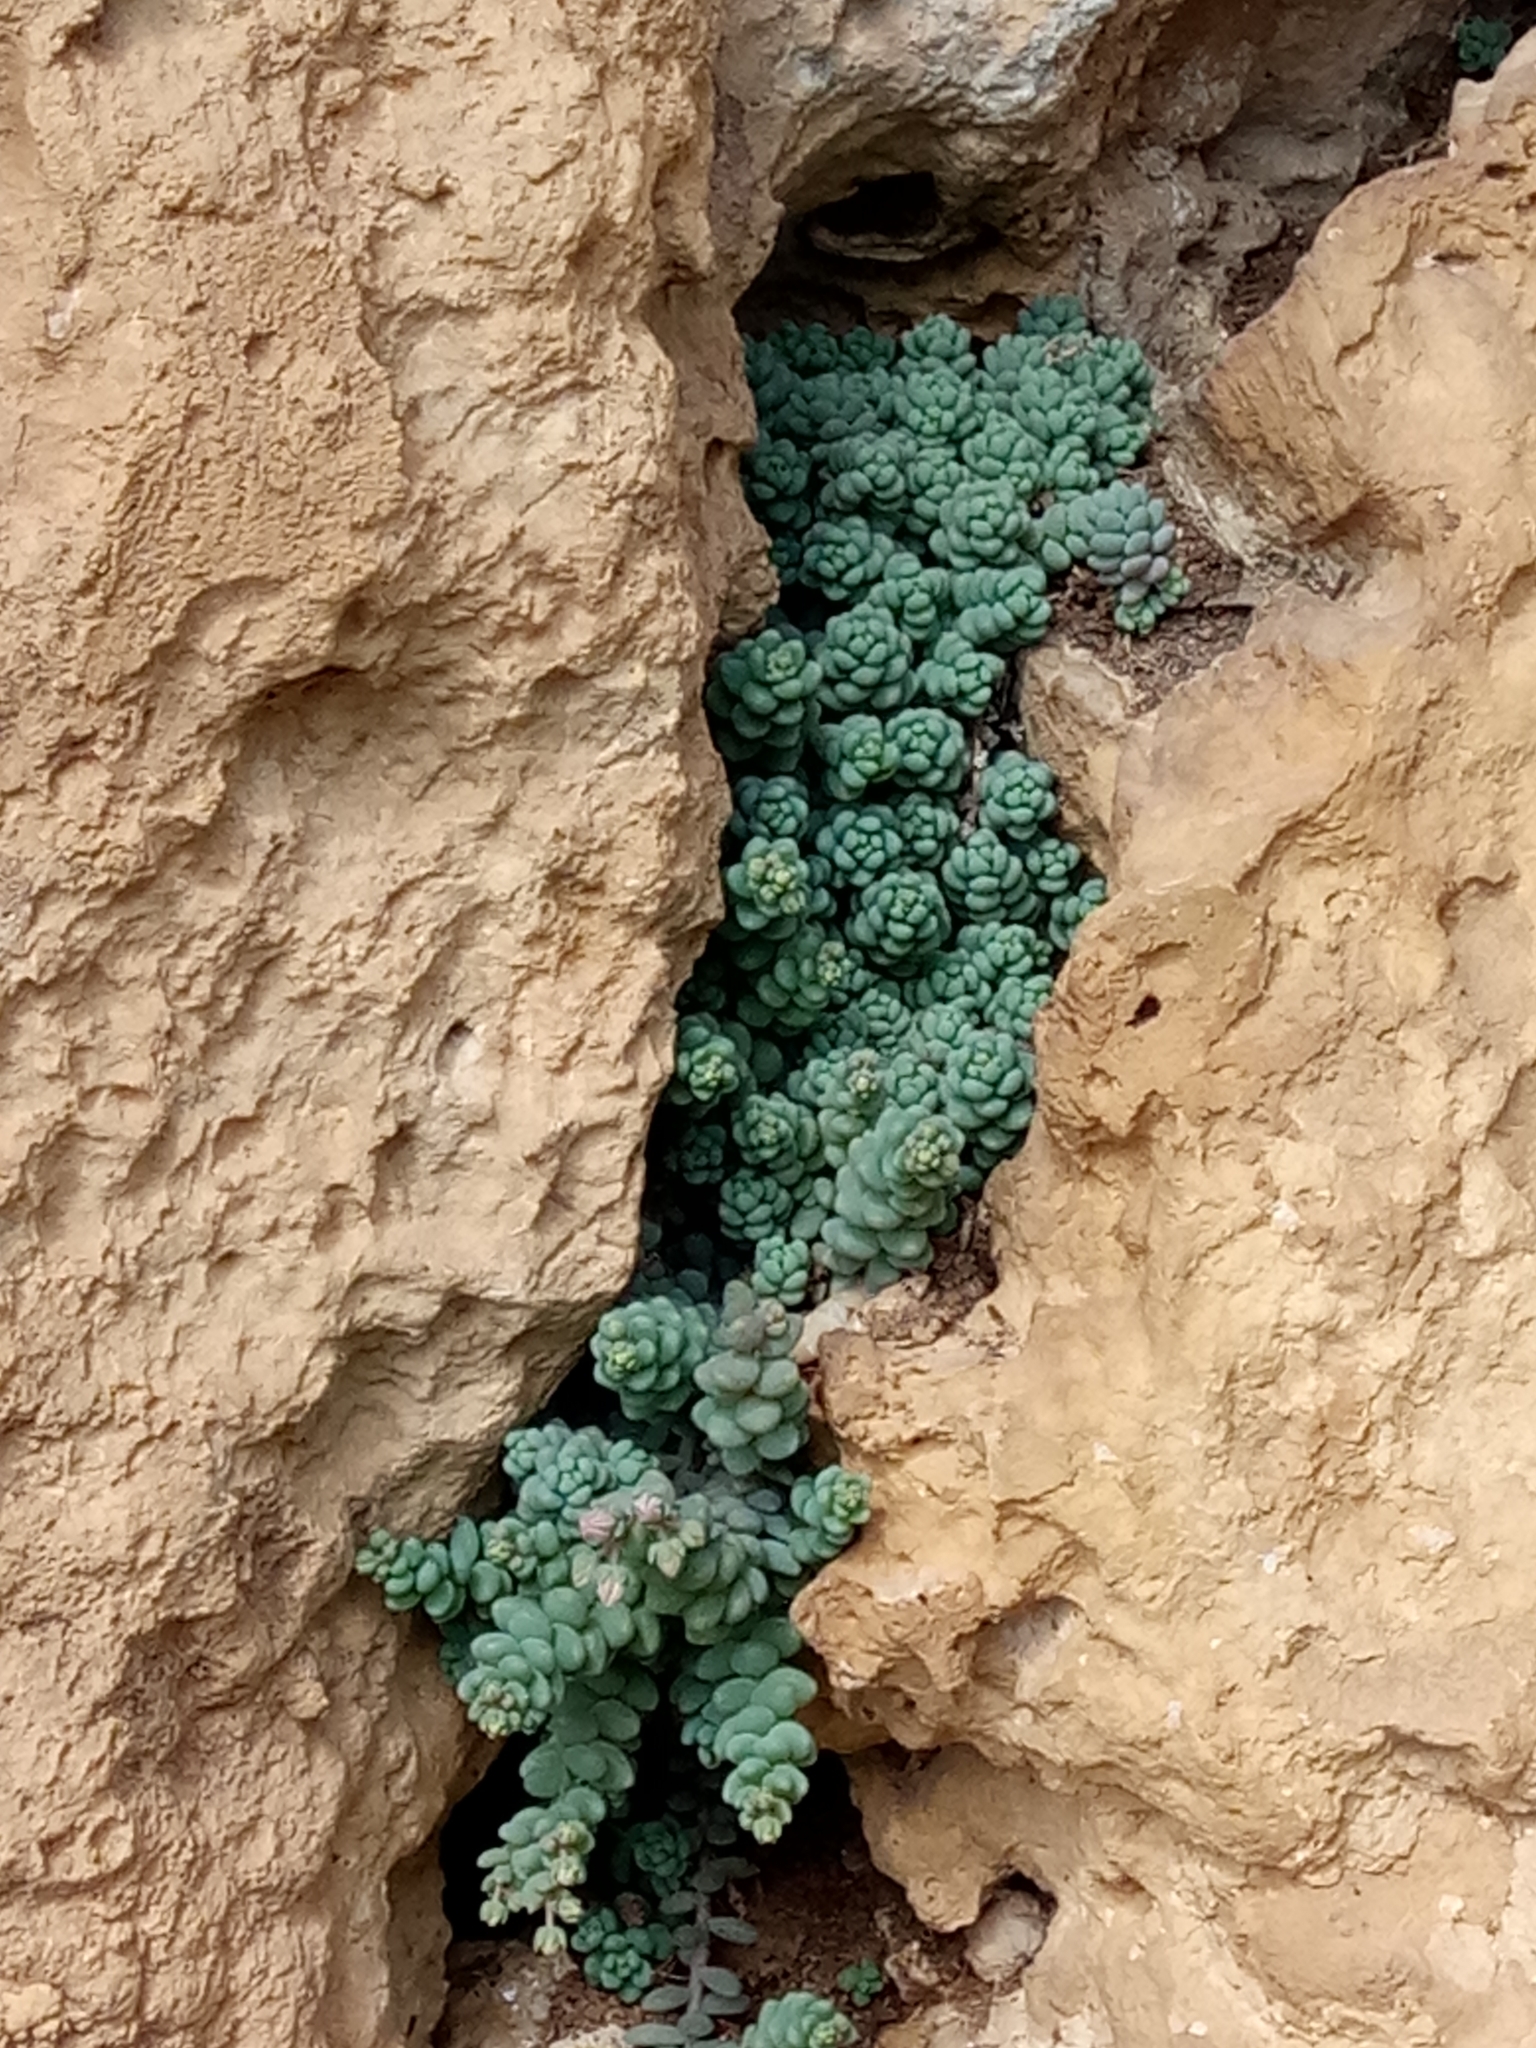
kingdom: Plantae
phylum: Tracheophyta
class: Magnoliopsida
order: Saxifragales
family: Crassulaceae
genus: Sedum
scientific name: Sedum dasyphyllum
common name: Thick-leaf stonecrop
